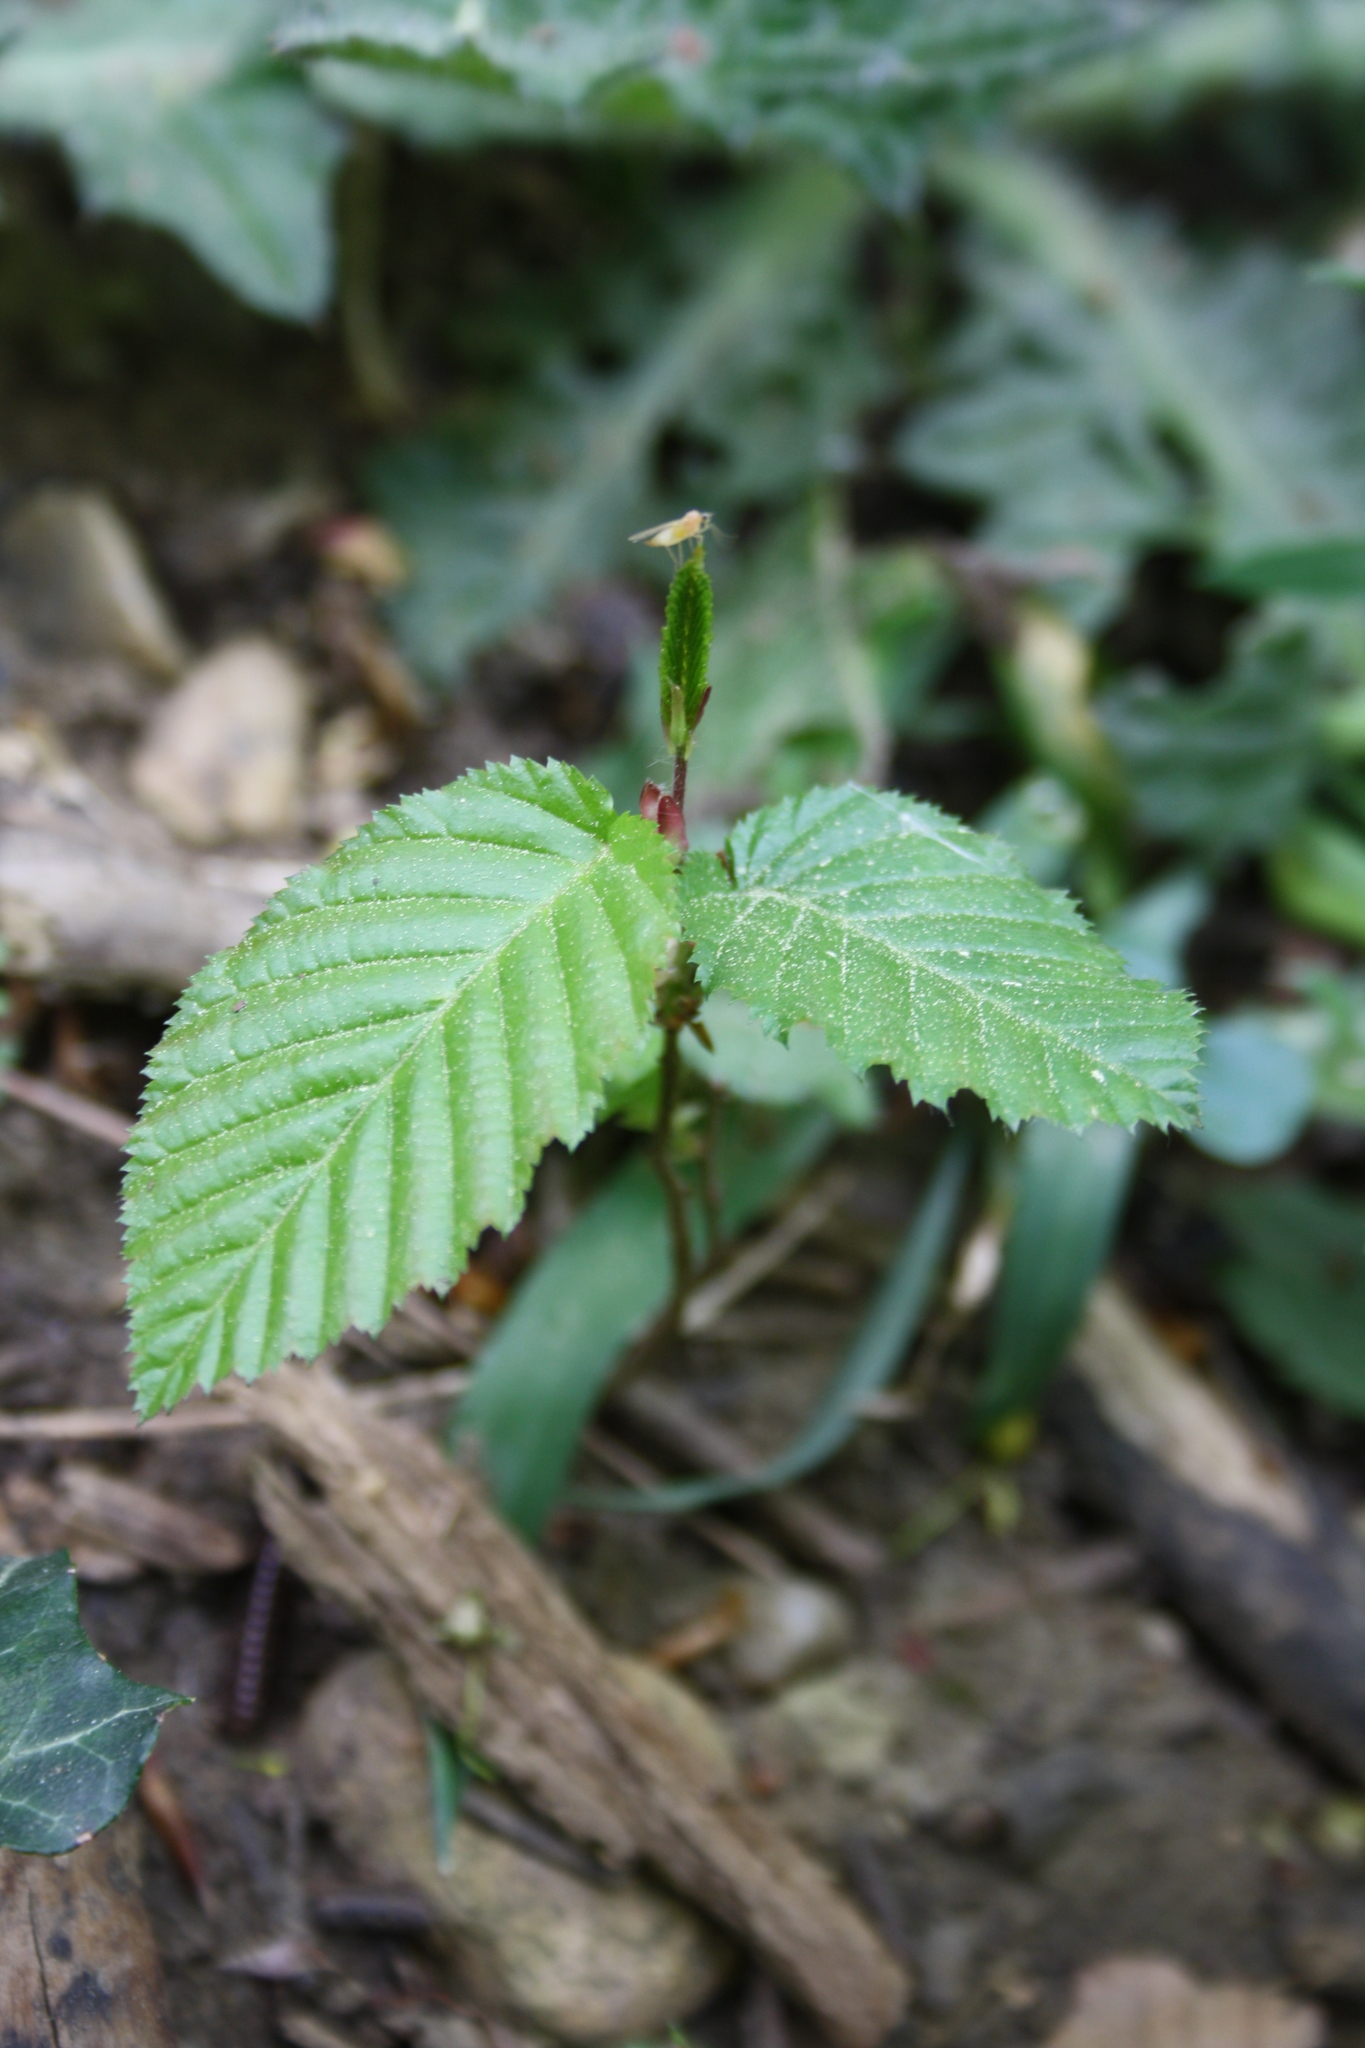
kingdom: Plantae
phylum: Tracheophyta
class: Magnoliopsida
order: Fagales
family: Betulaceae
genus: Carpinus
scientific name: Carpinus betulus
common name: Hornbeam
